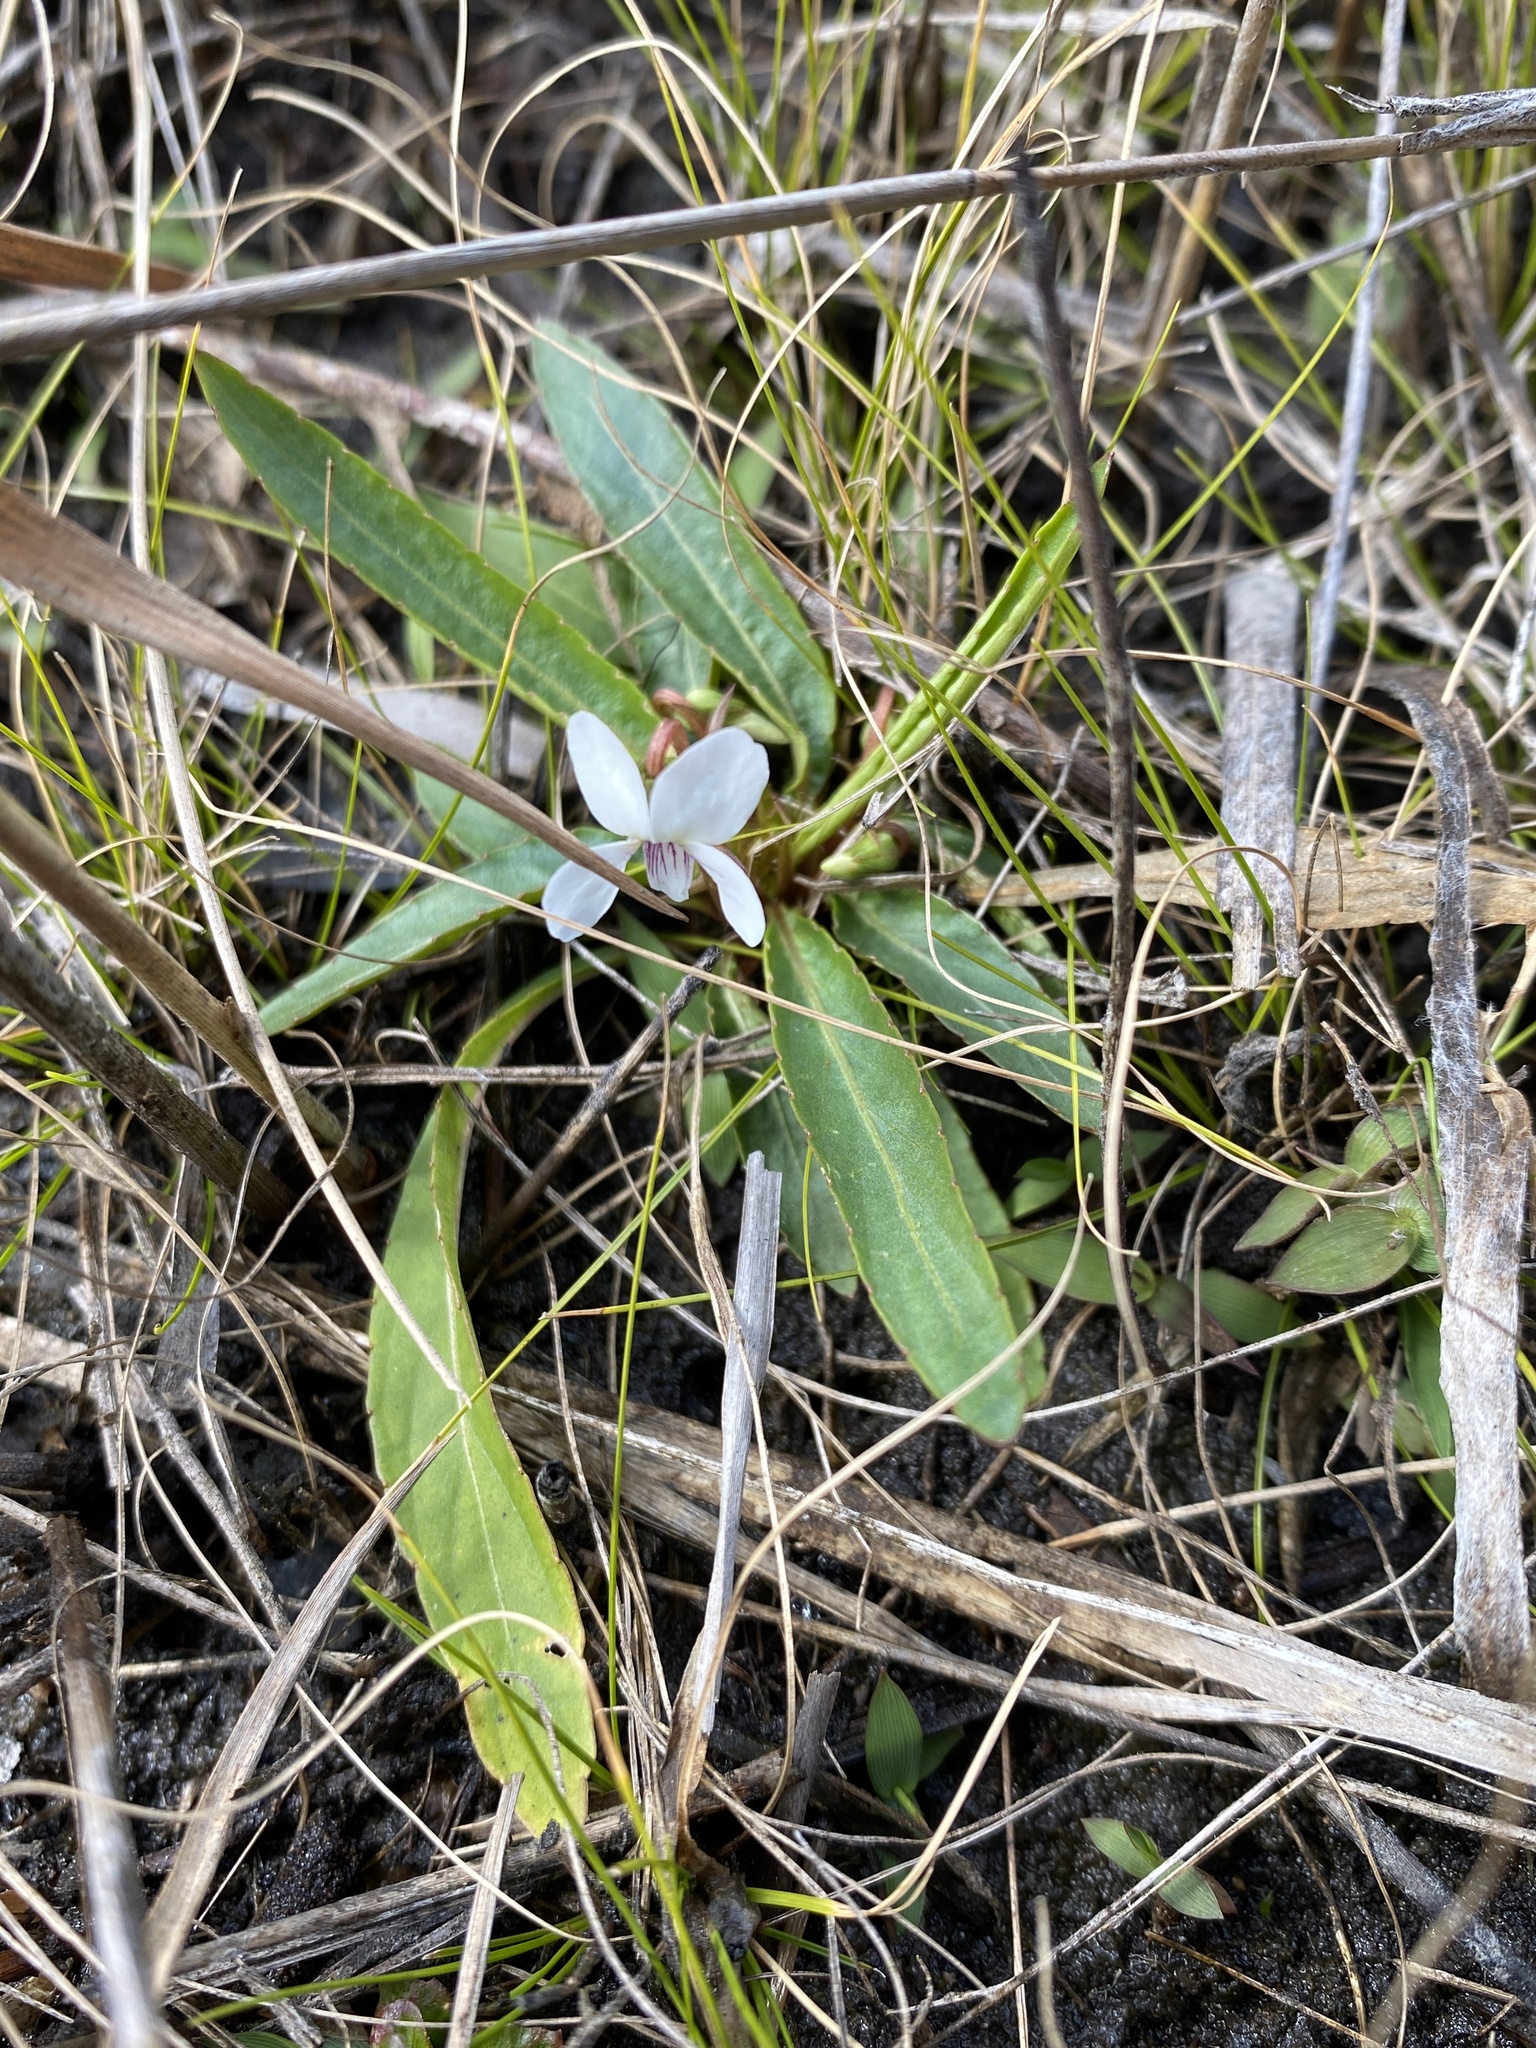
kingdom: Plantae
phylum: Tracheophyta
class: Magnoliopsida
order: Malpighiales
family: Violaceae
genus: Viola
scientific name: Viola lanceolata
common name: Bog white violet
